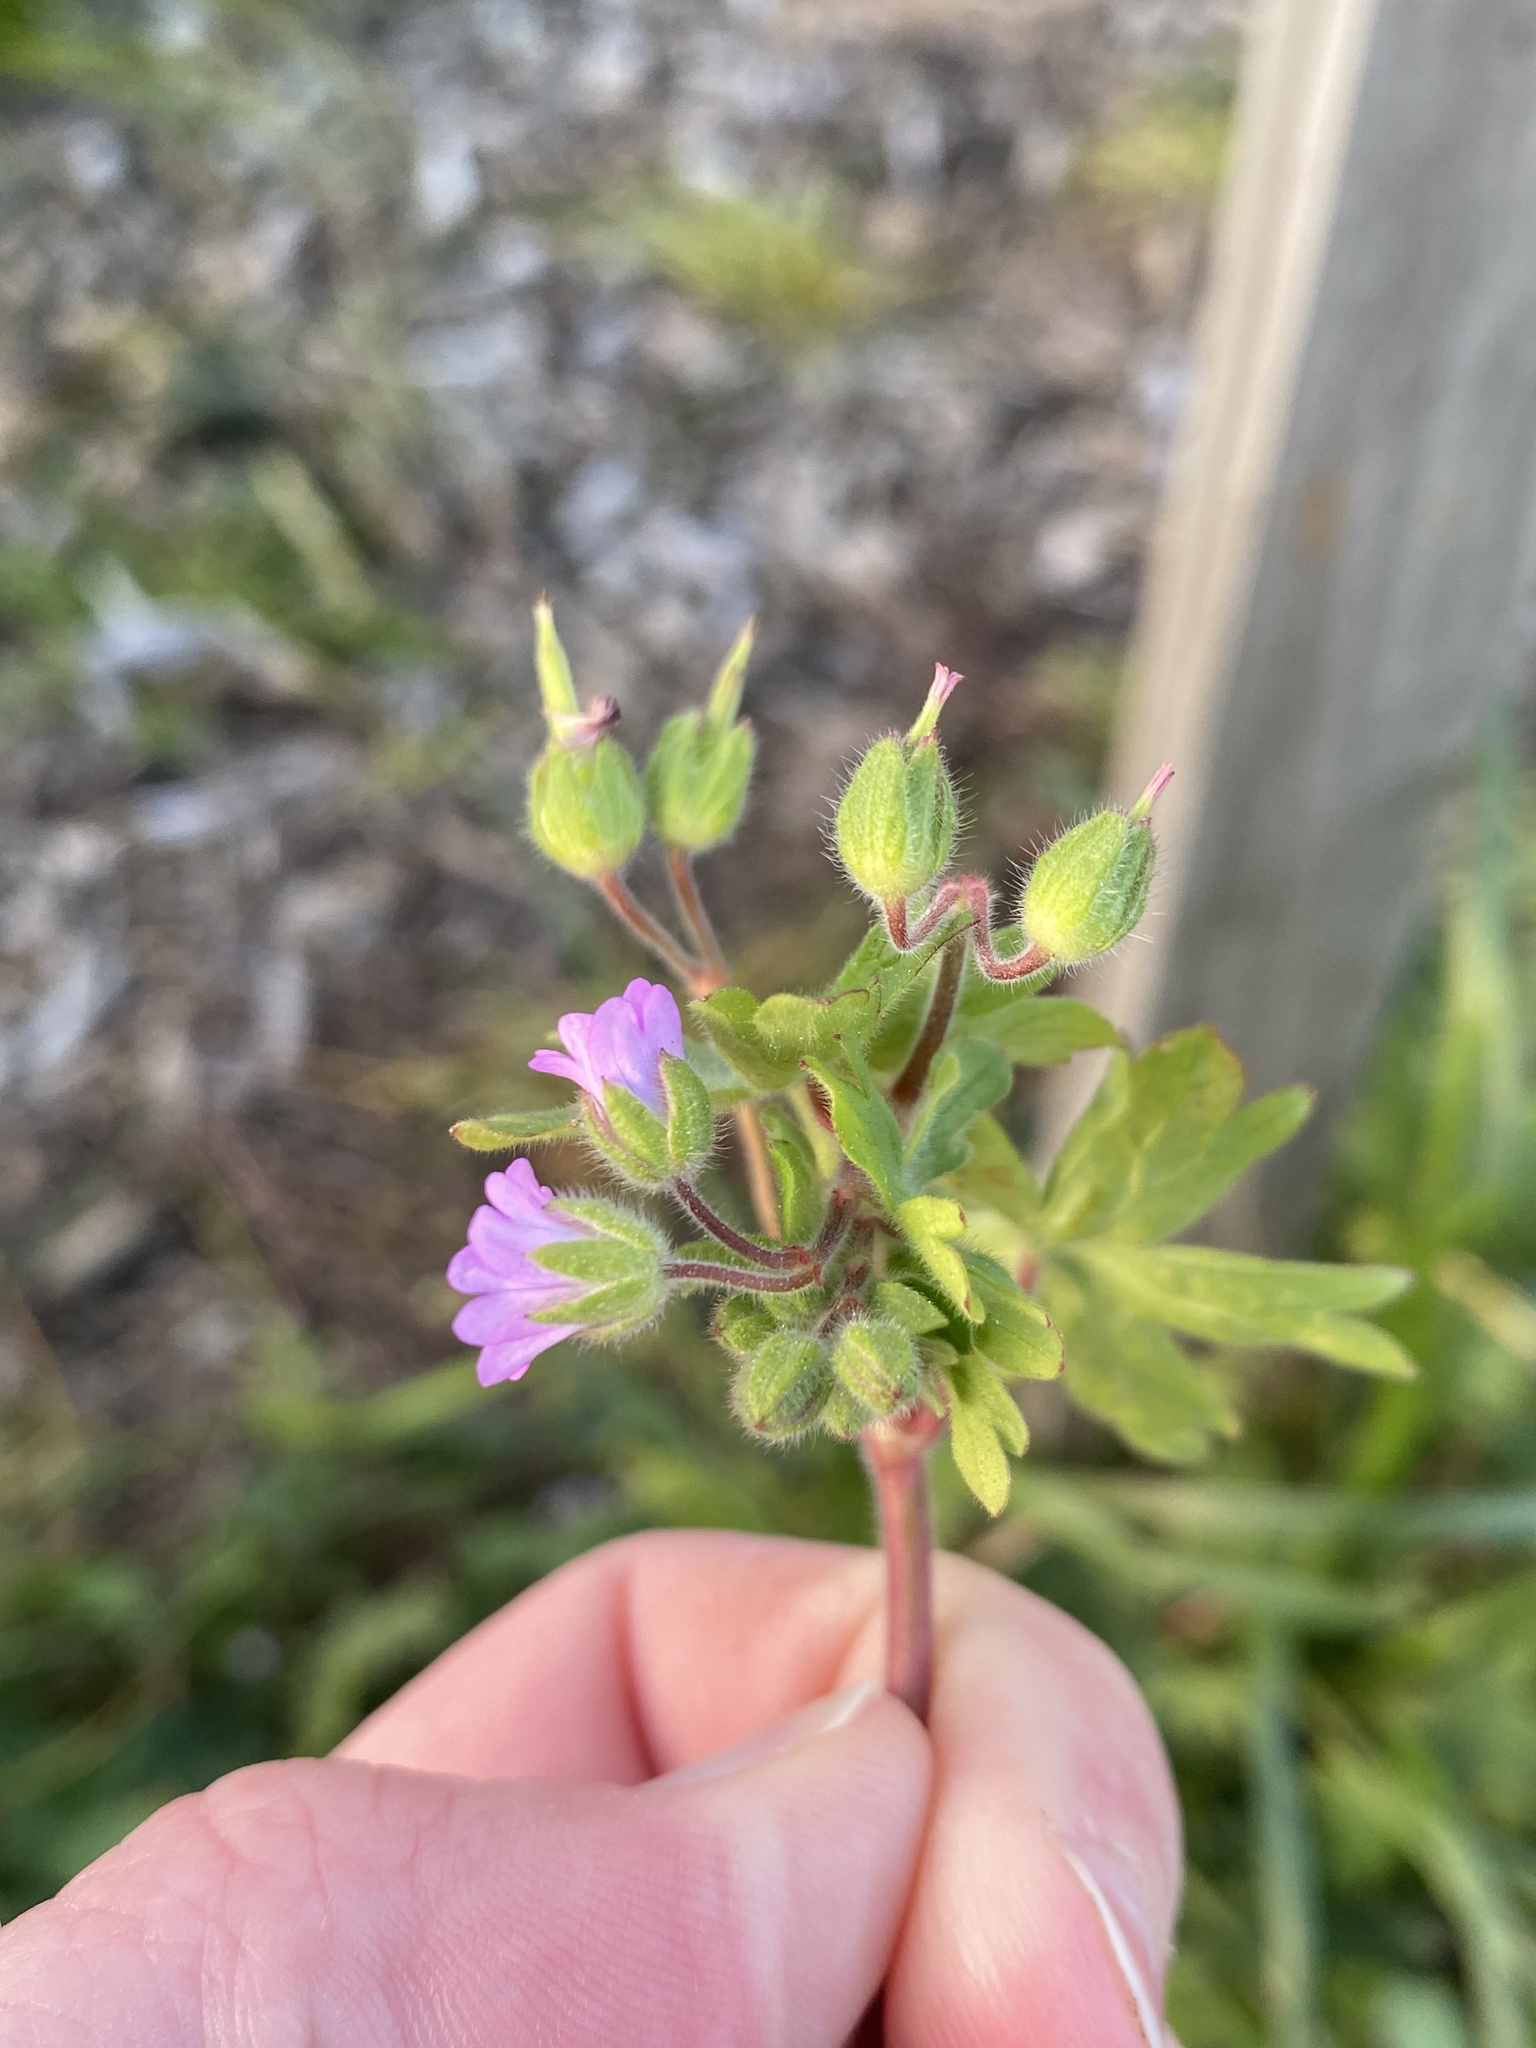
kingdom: Plantae
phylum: Tracheophyta
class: Magnoliopsida
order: Geraniales
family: Geraniaceae
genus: Geranium
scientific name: Geranium molle
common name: Dove's-foot crane's-bill
